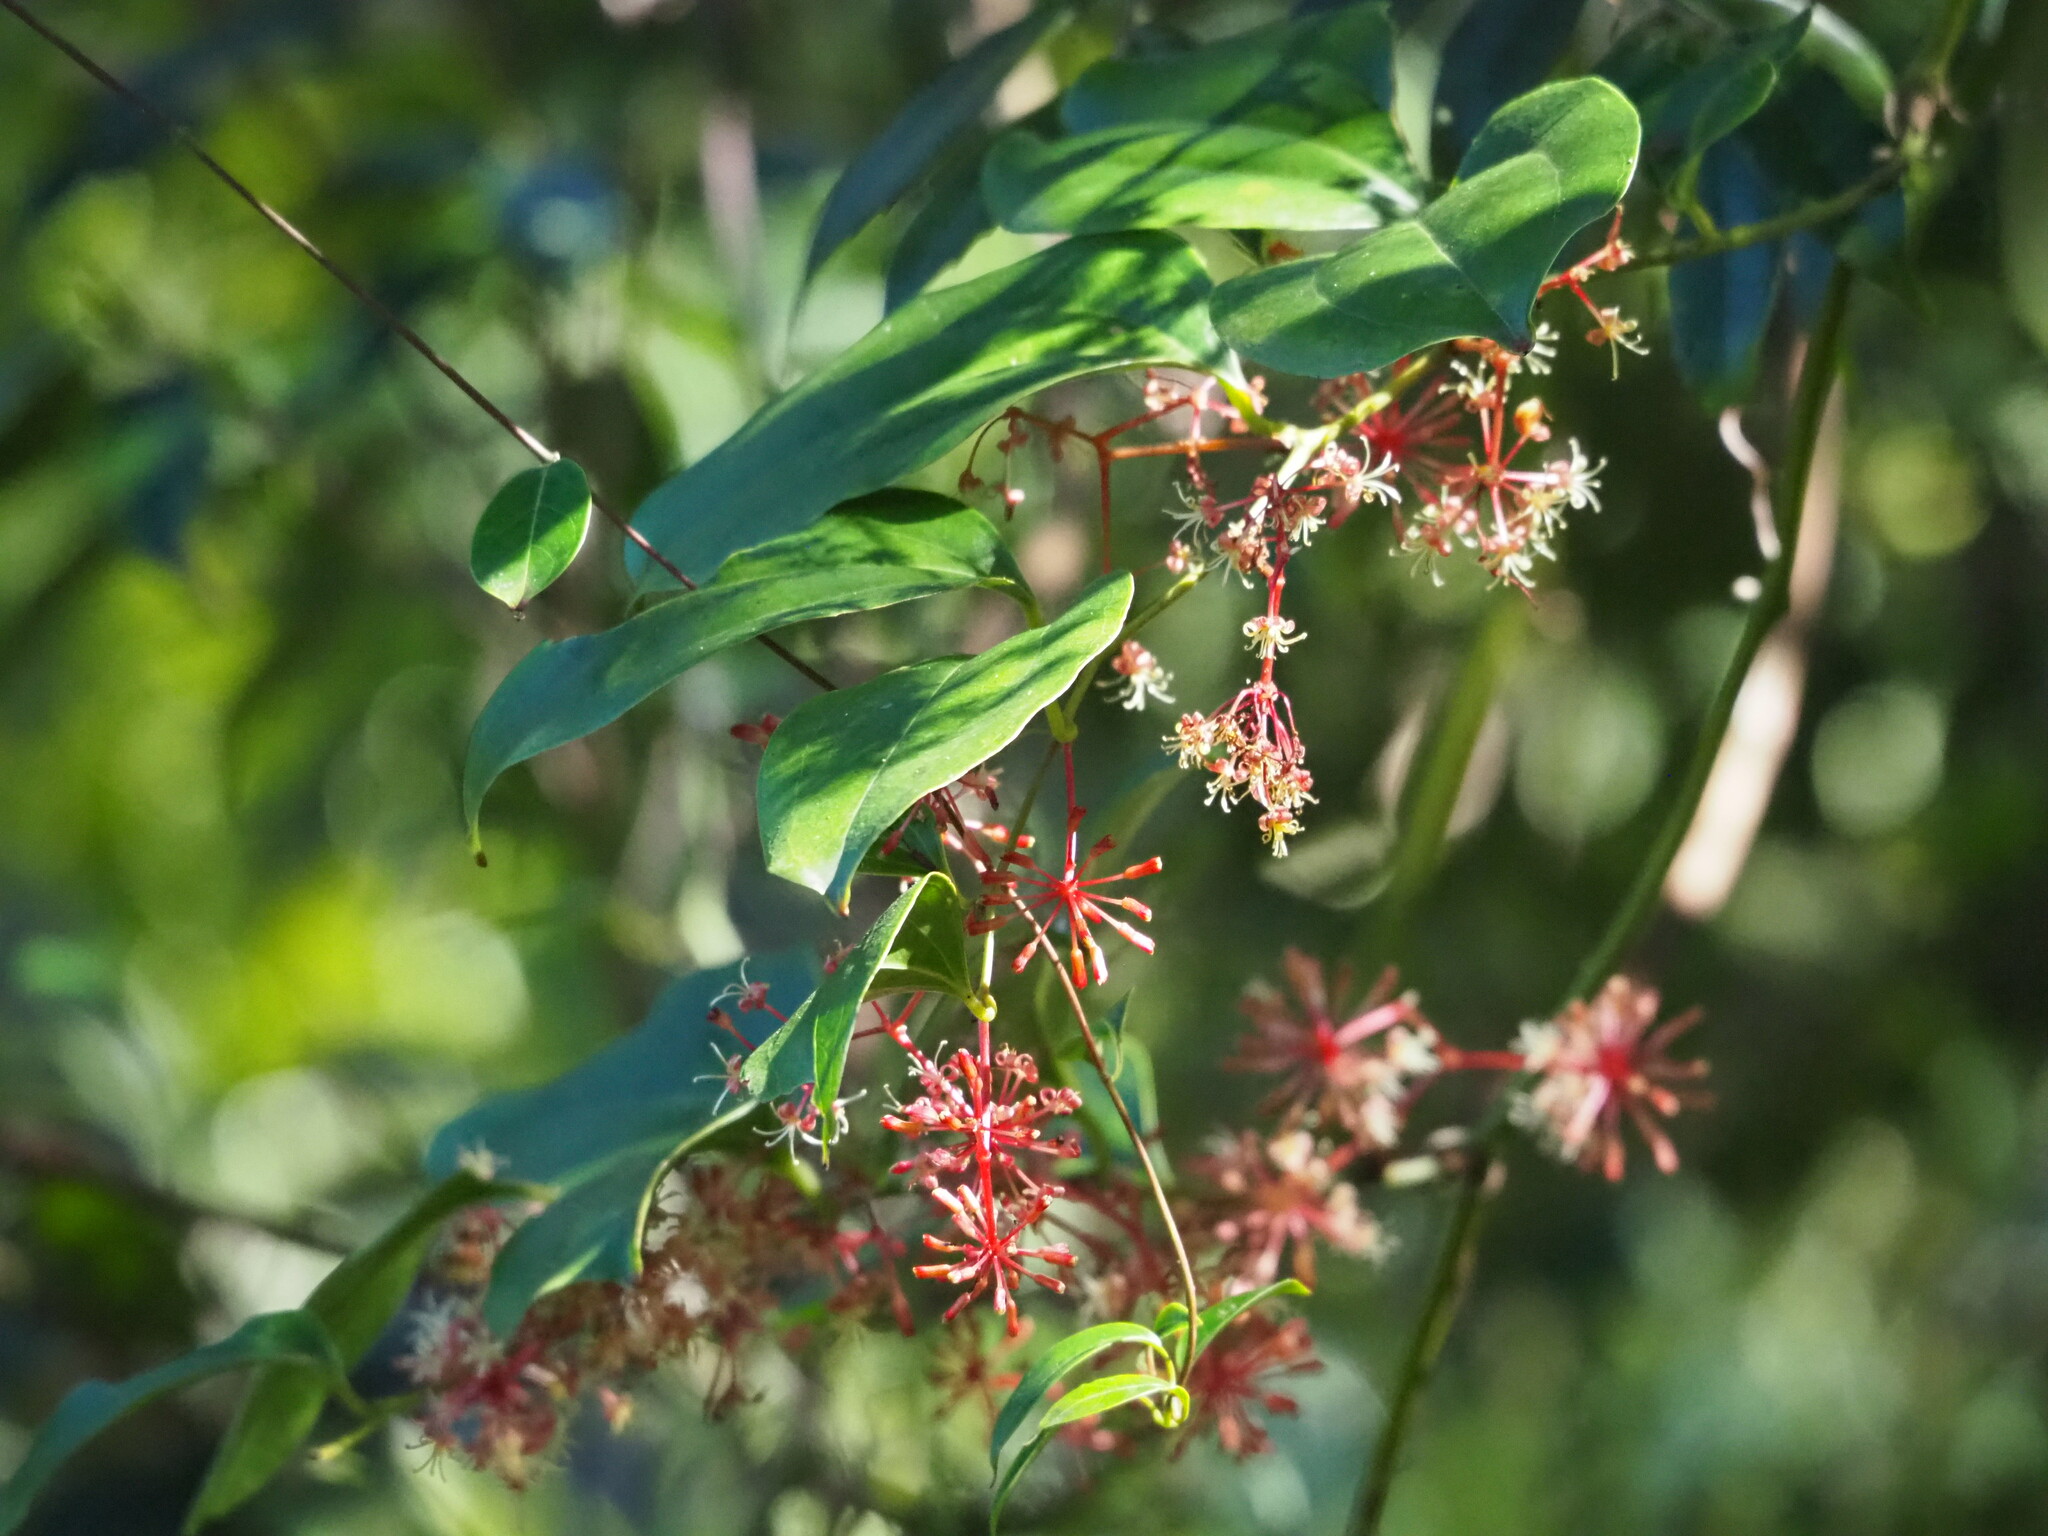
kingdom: Plantae
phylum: Tracheophyta
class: Liliopsida
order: Liliales
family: Smilacaceae
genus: Smilax
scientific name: Smilax bracteata
